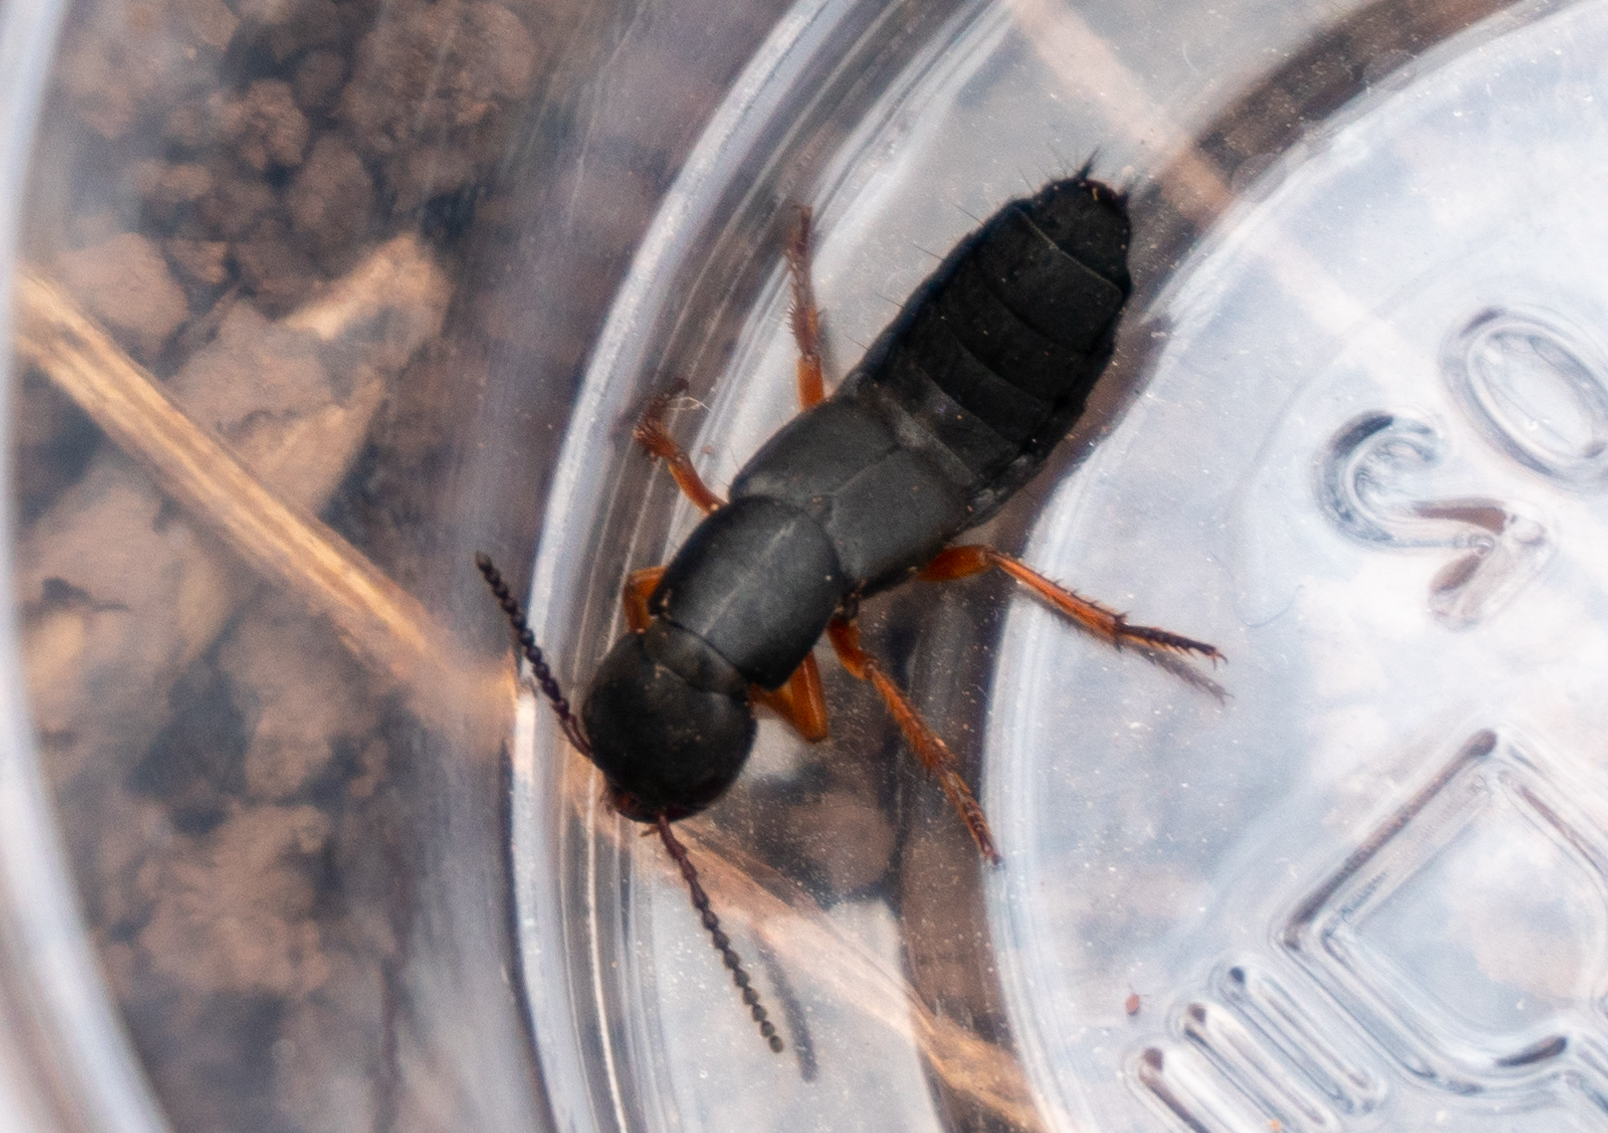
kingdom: Animalia
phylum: Arthropoda
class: Insecta
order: Coleoptera
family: Staphylinidae
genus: Dinothenarus
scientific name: Dinothenarus badipes
